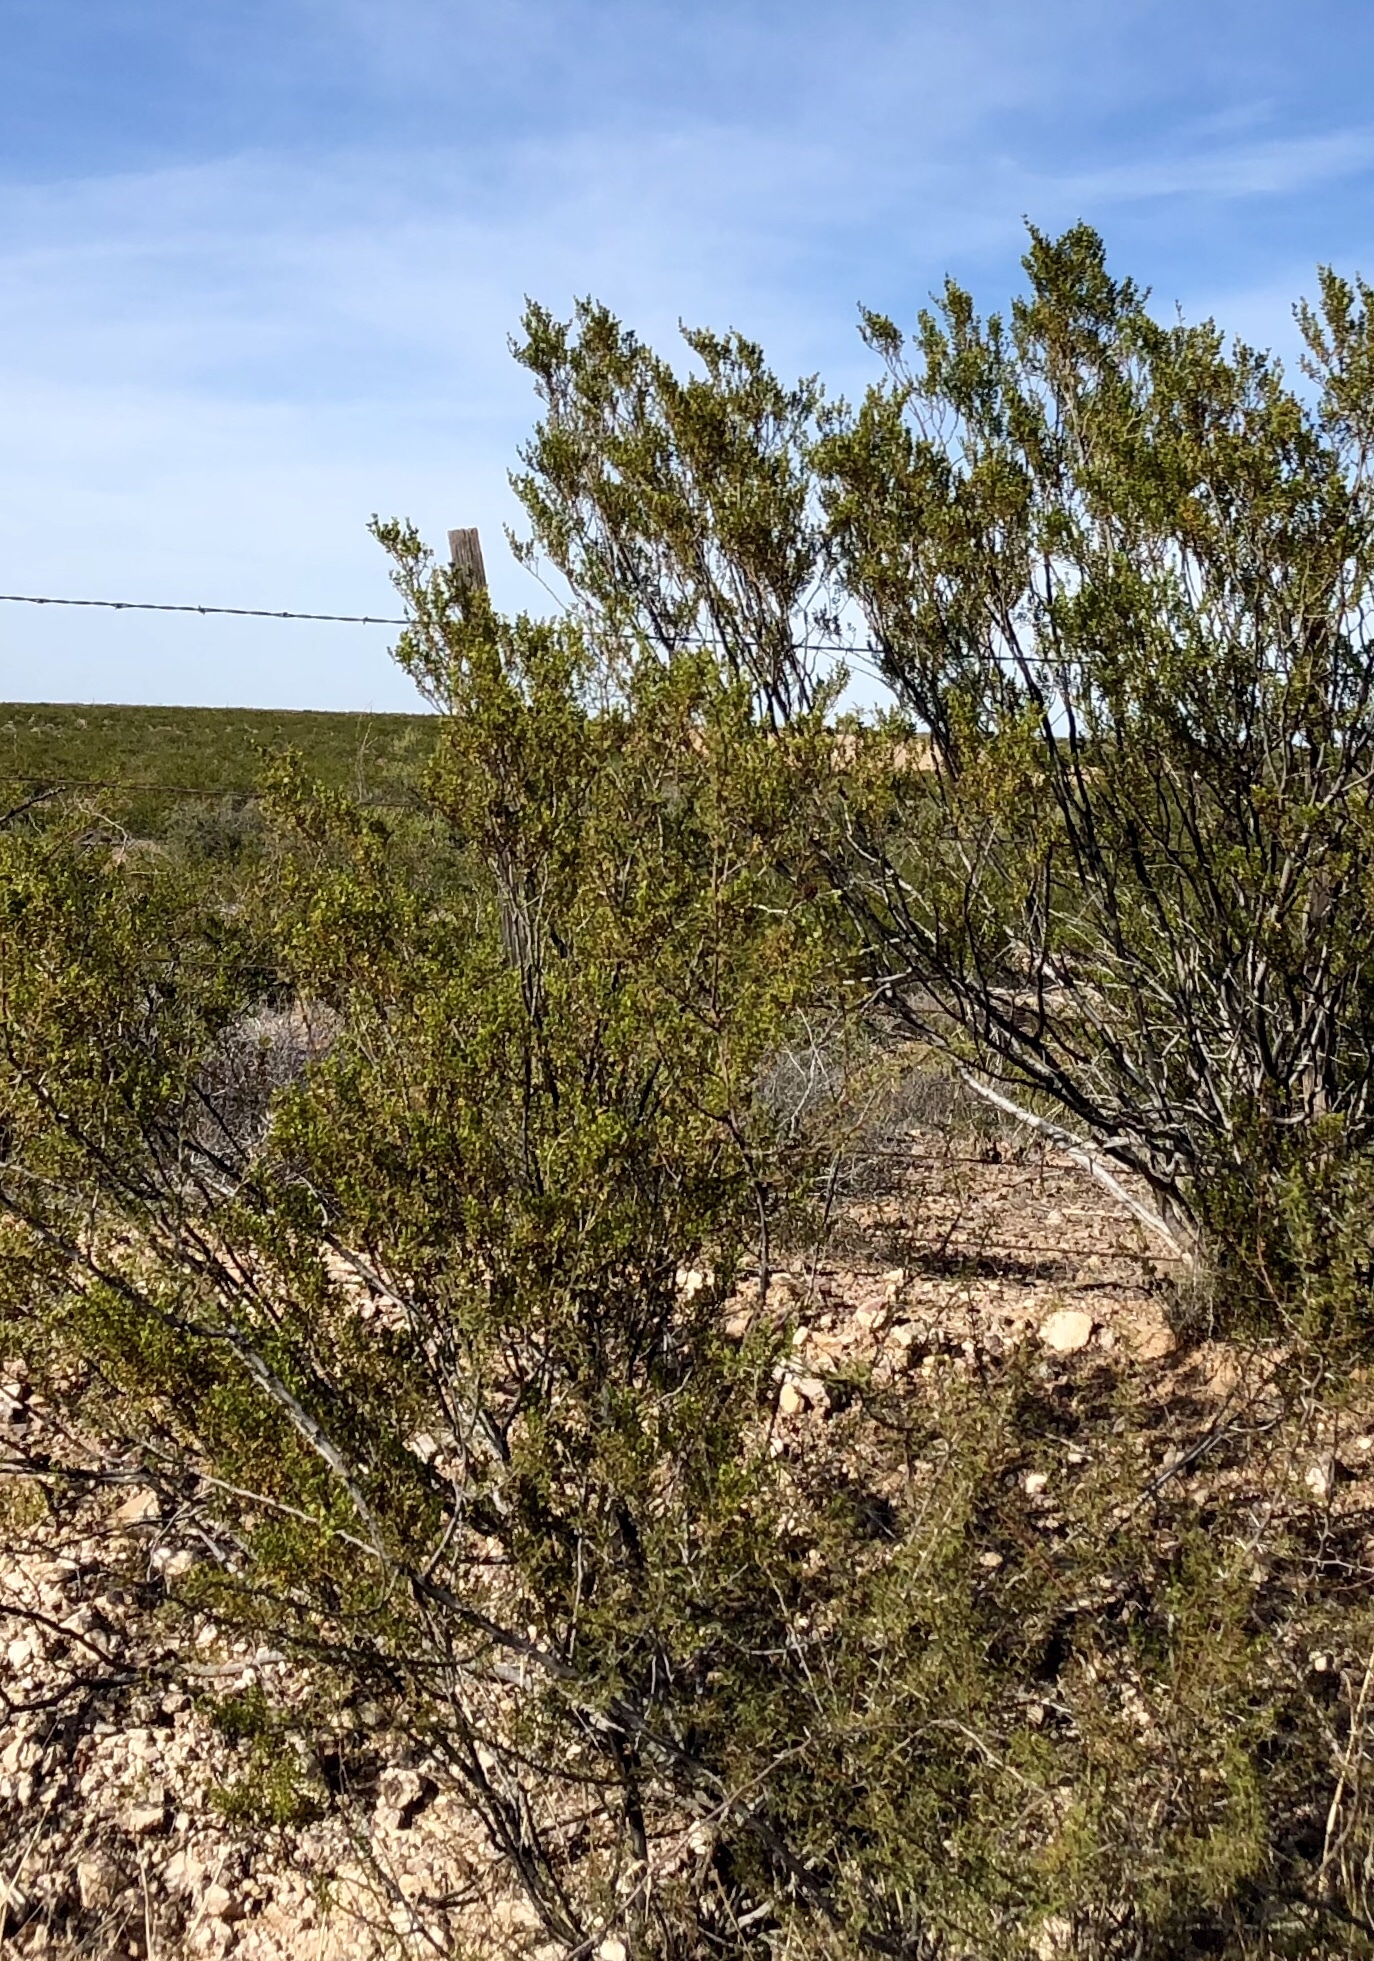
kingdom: Plantae
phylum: Tracheophyta
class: Magnoliopsida
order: Zygophyllales
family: Zygophyllaceae
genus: Larrea
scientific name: Larrea tridentata
